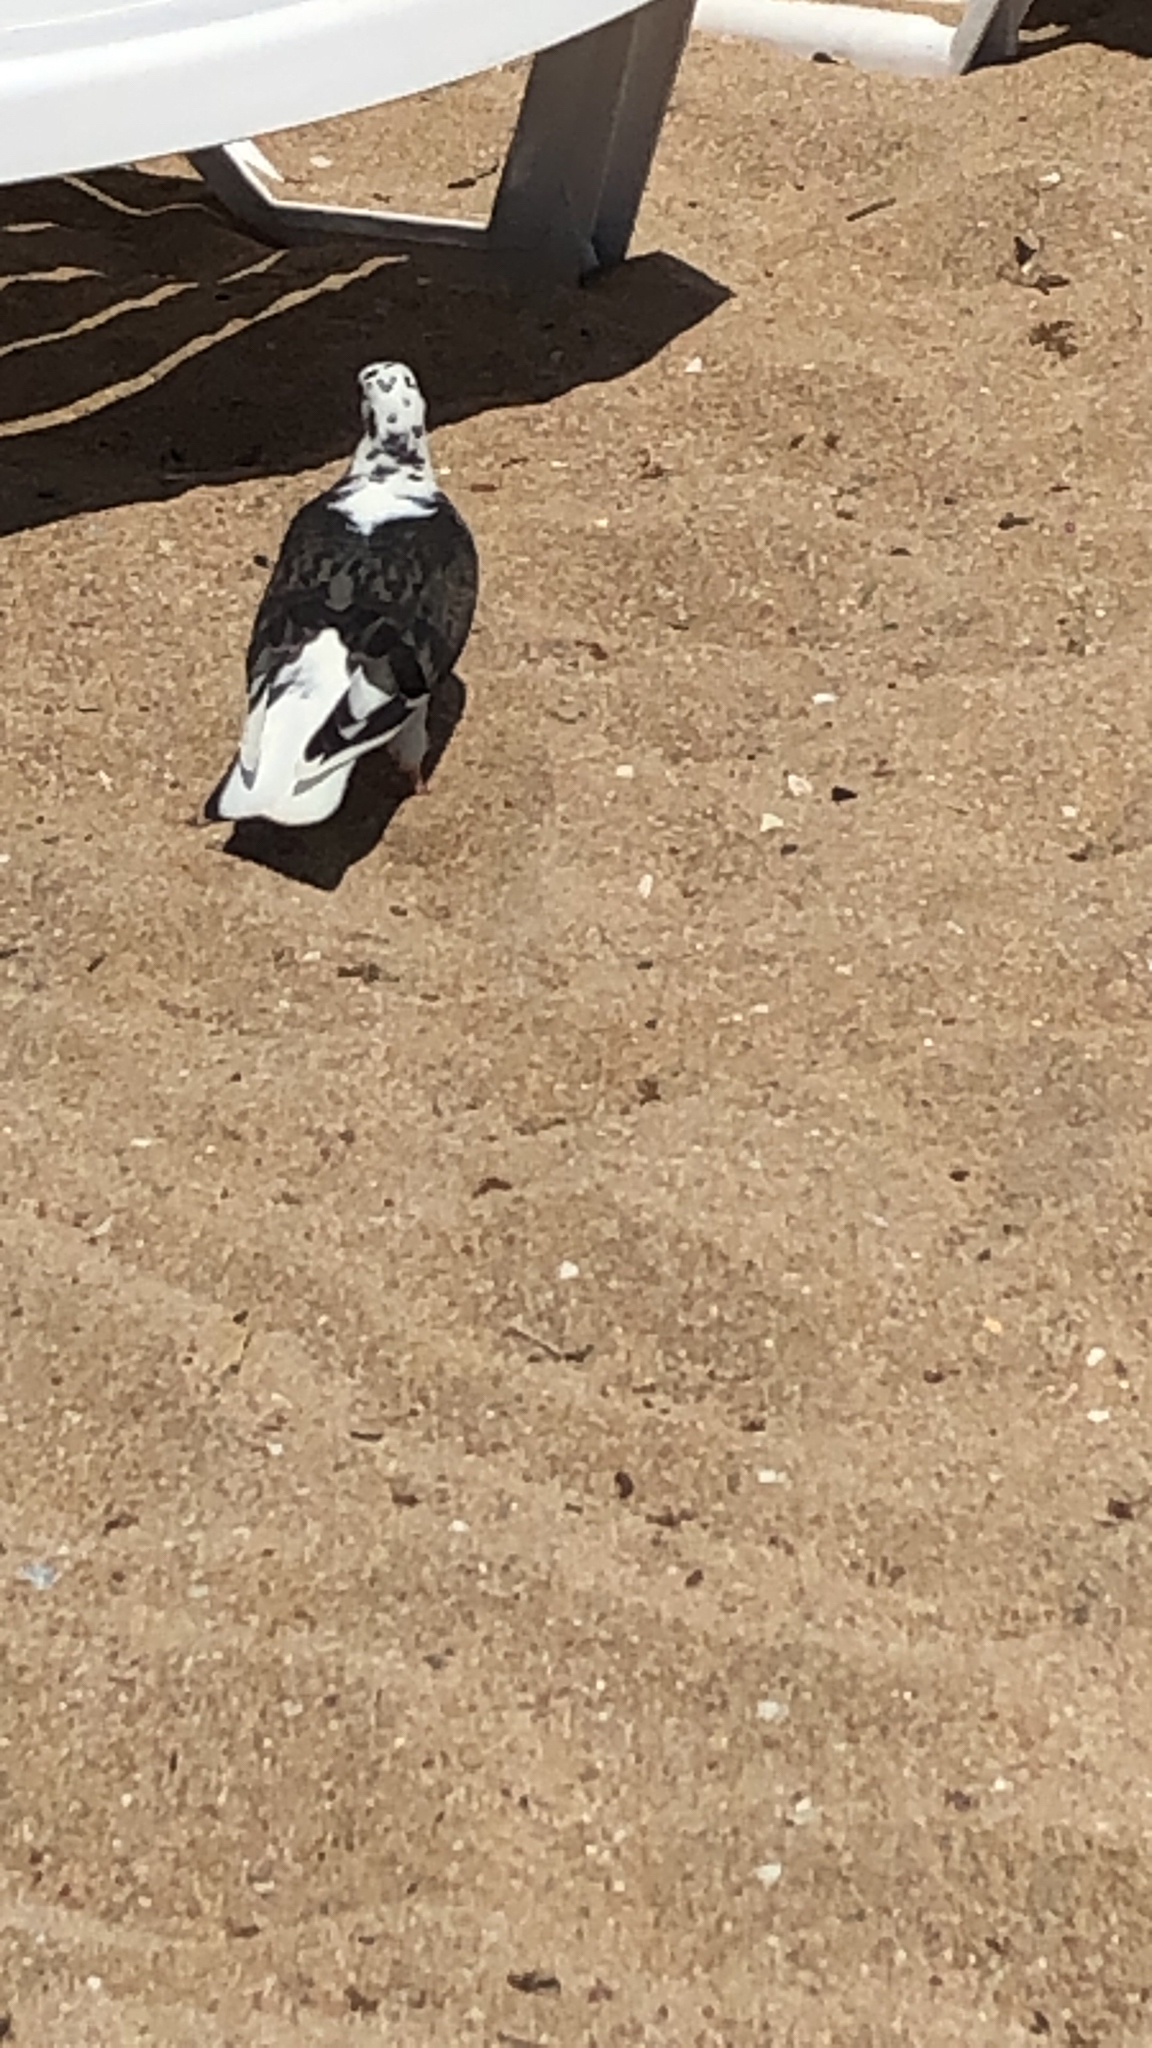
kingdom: Animalia
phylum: Chordata
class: Aves
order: Columbiformes
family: Columbidae
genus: Columba
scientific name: Columba livia
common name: Rock pigeon
